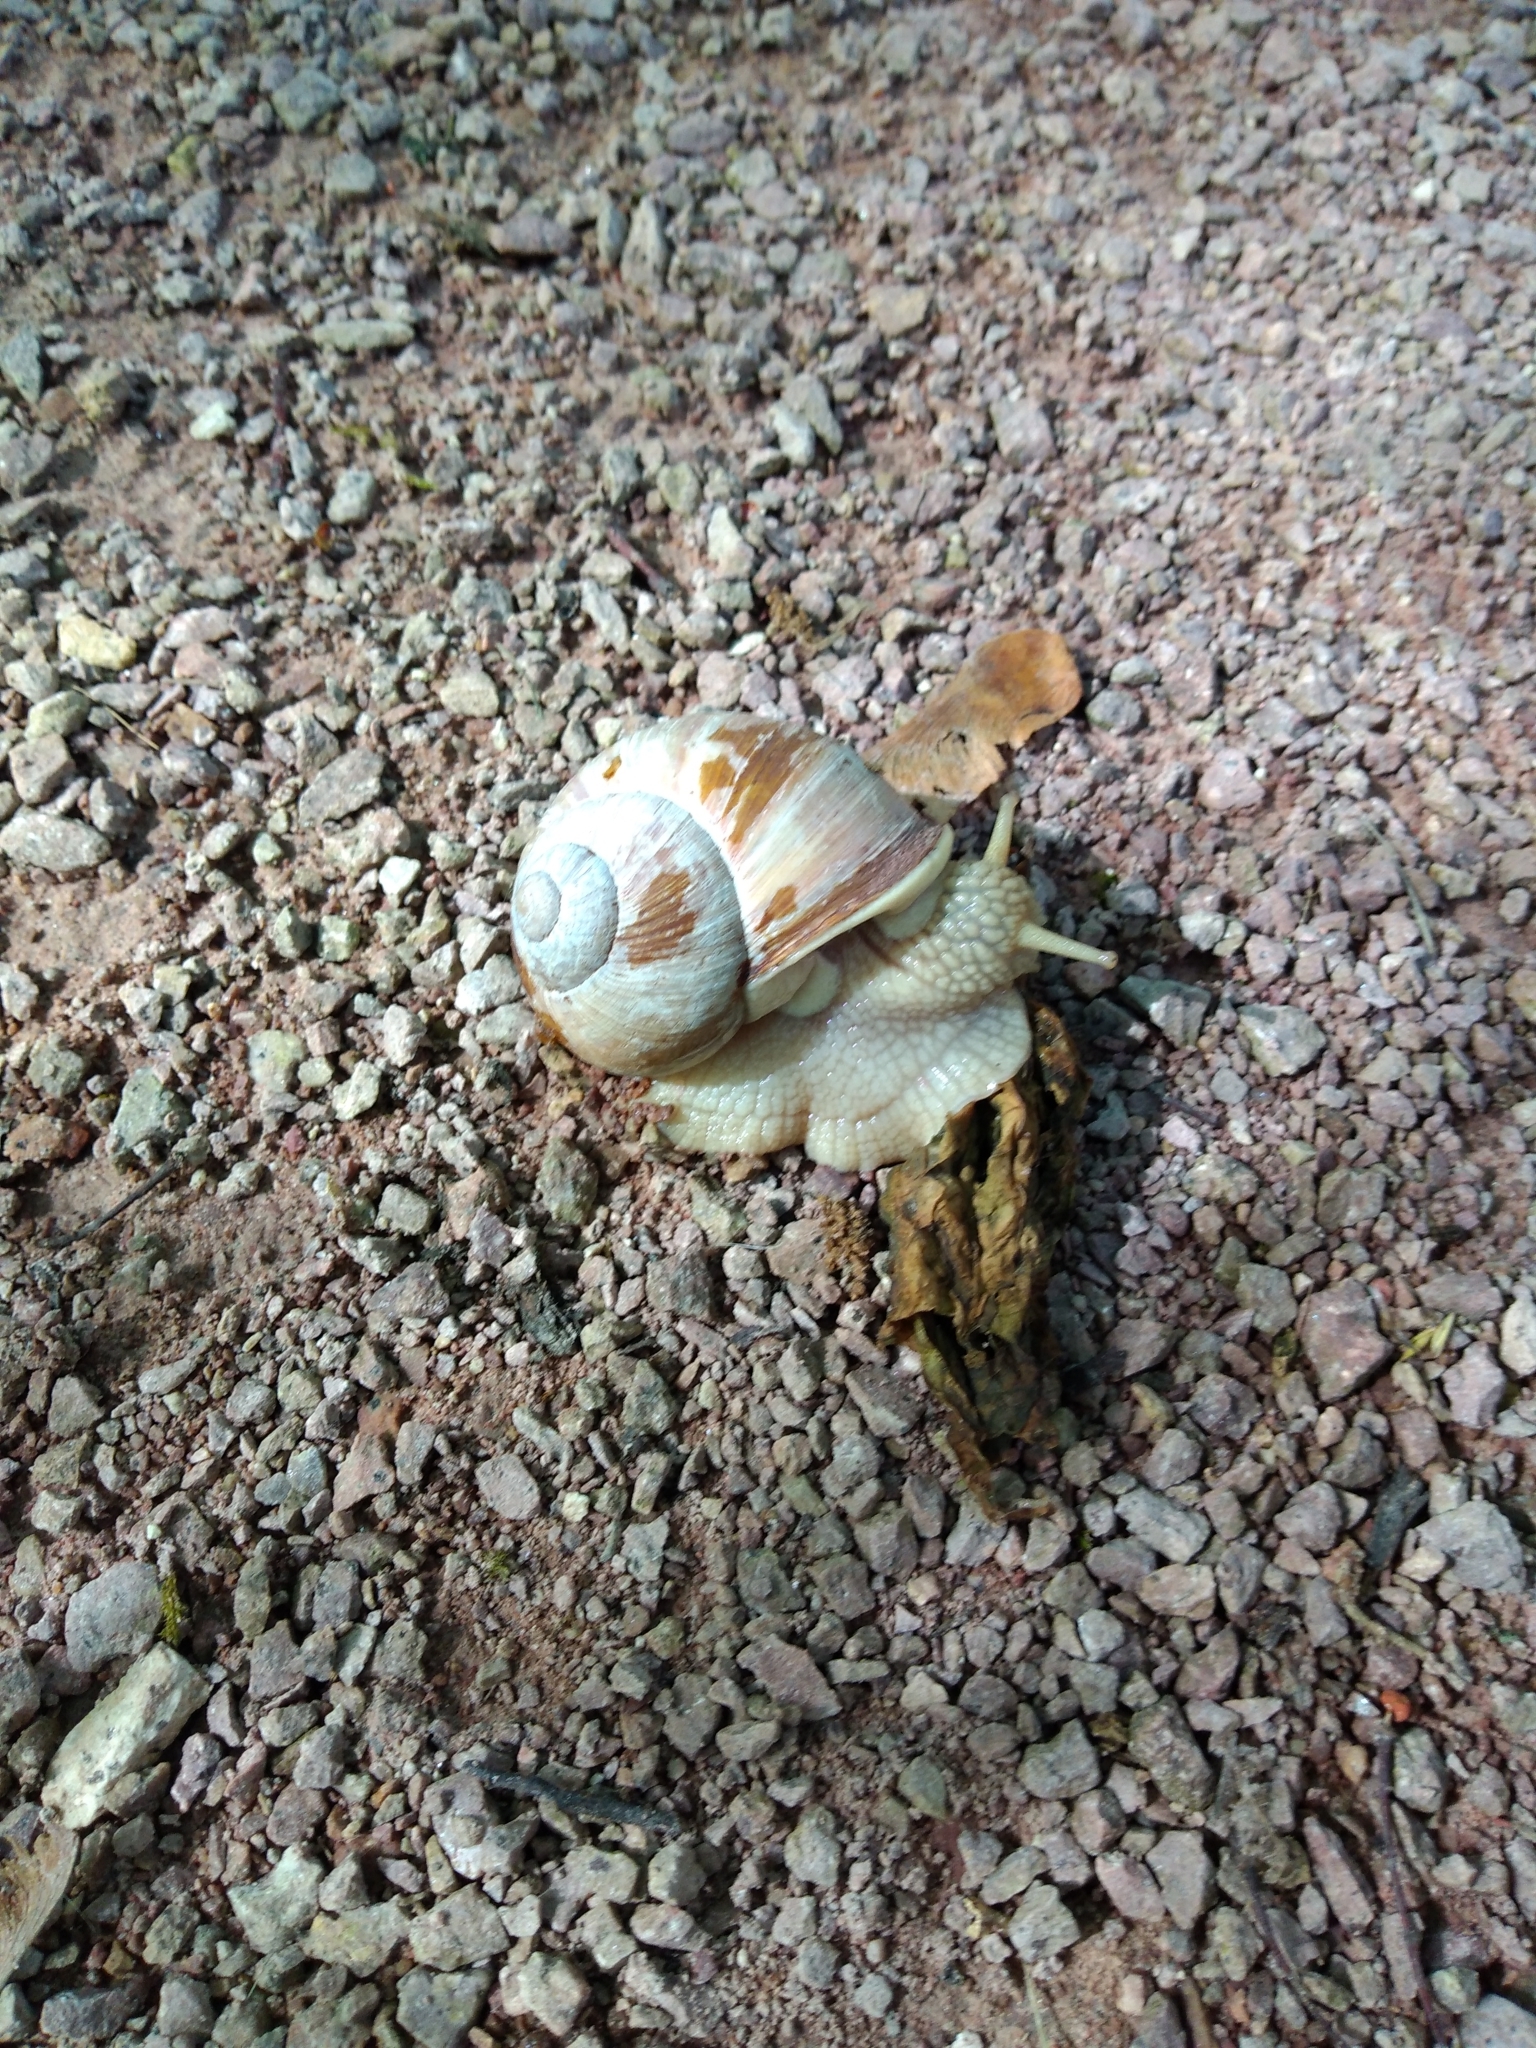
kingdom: Animalia
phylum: Mollusca
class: Gastropoda
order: Stylommatophora
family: Helicidae
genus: Helix
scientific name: Helix pomatia
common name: Roman snail
